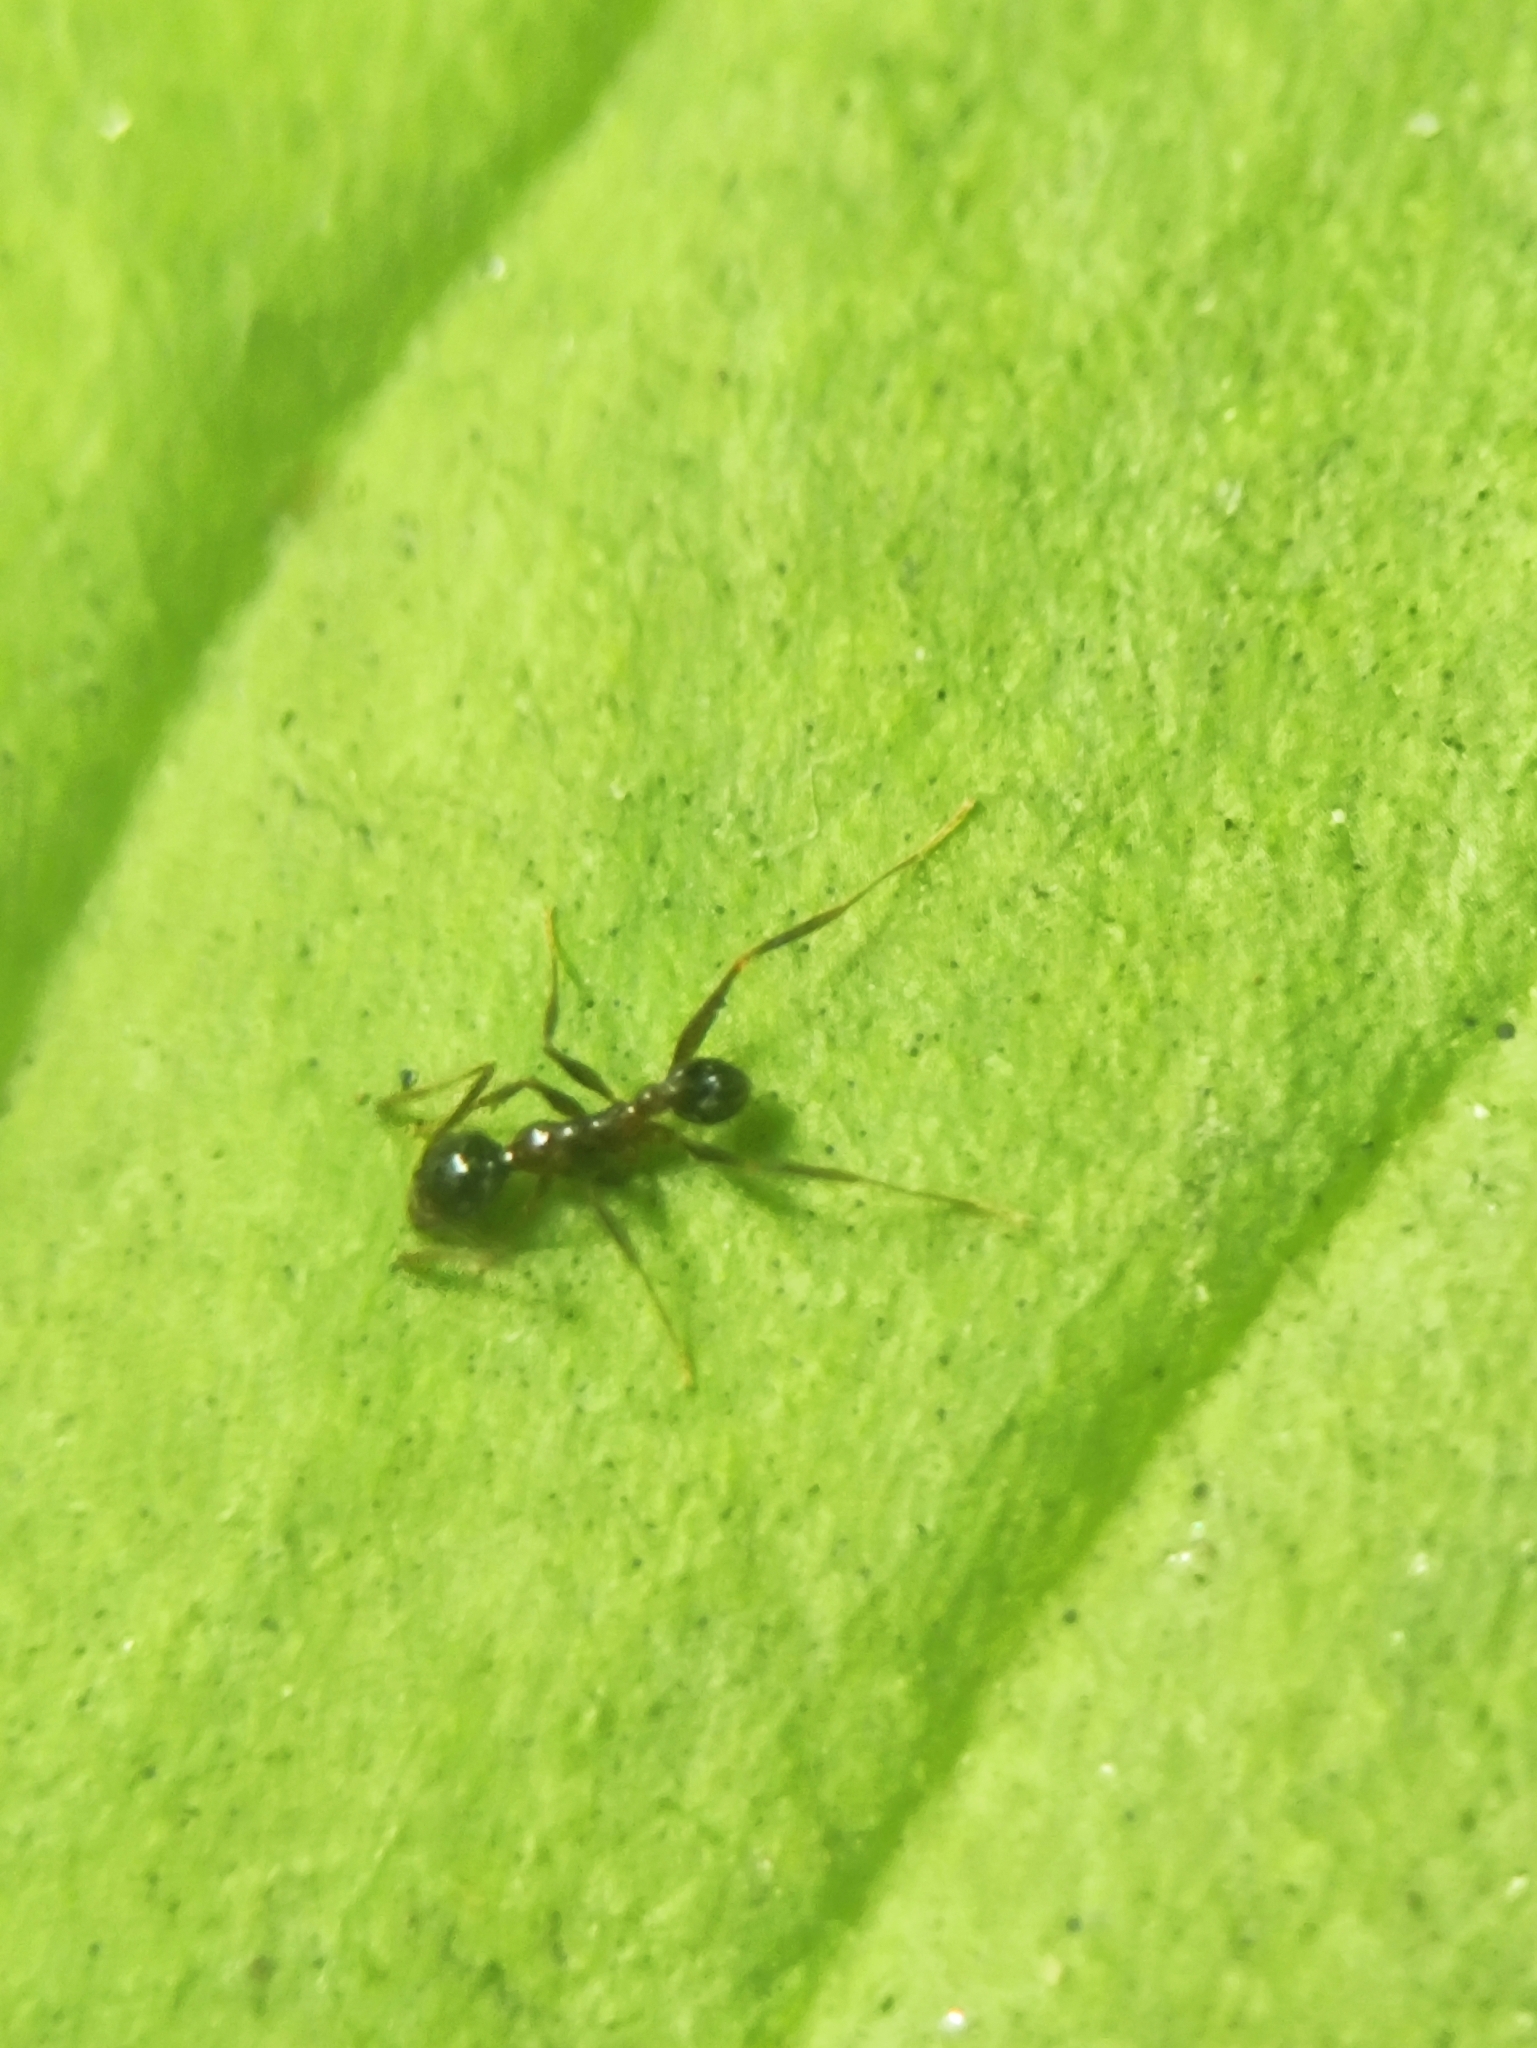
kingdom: Animalia
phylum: Arthropoda
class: Insecta
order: Hymenoptera
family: Formicidae
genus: Pheidole
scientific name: Pheidole noda
